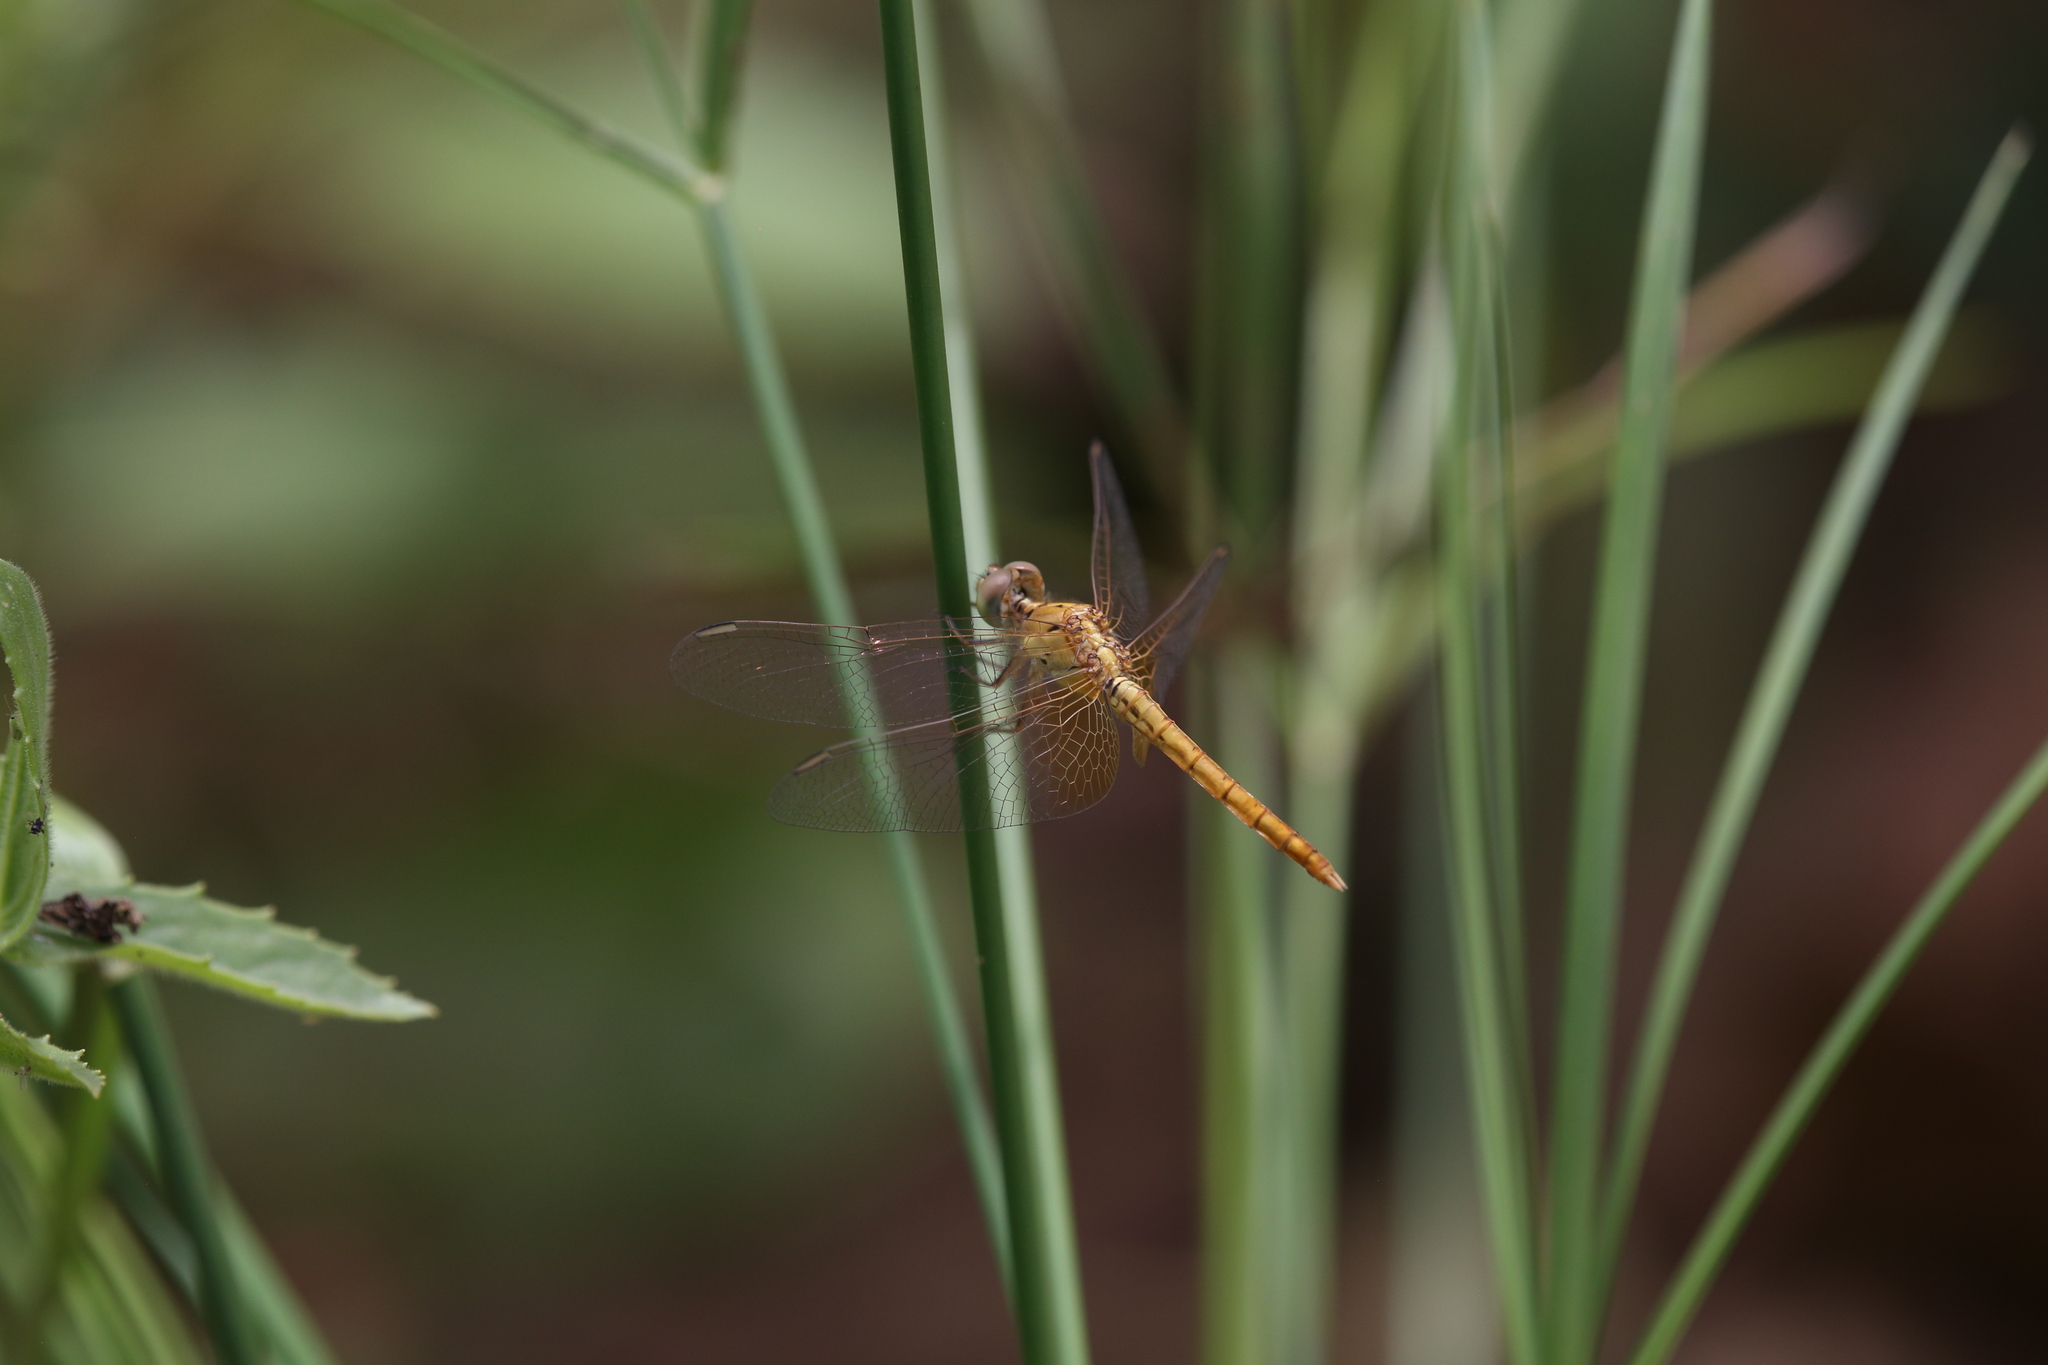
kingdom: Animalia
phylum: Arthropoda
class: Insecta
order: Odonata
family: Libellulidae
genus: Diplacodes
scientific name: Diplacodes haematodes
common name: Scarlet percher
